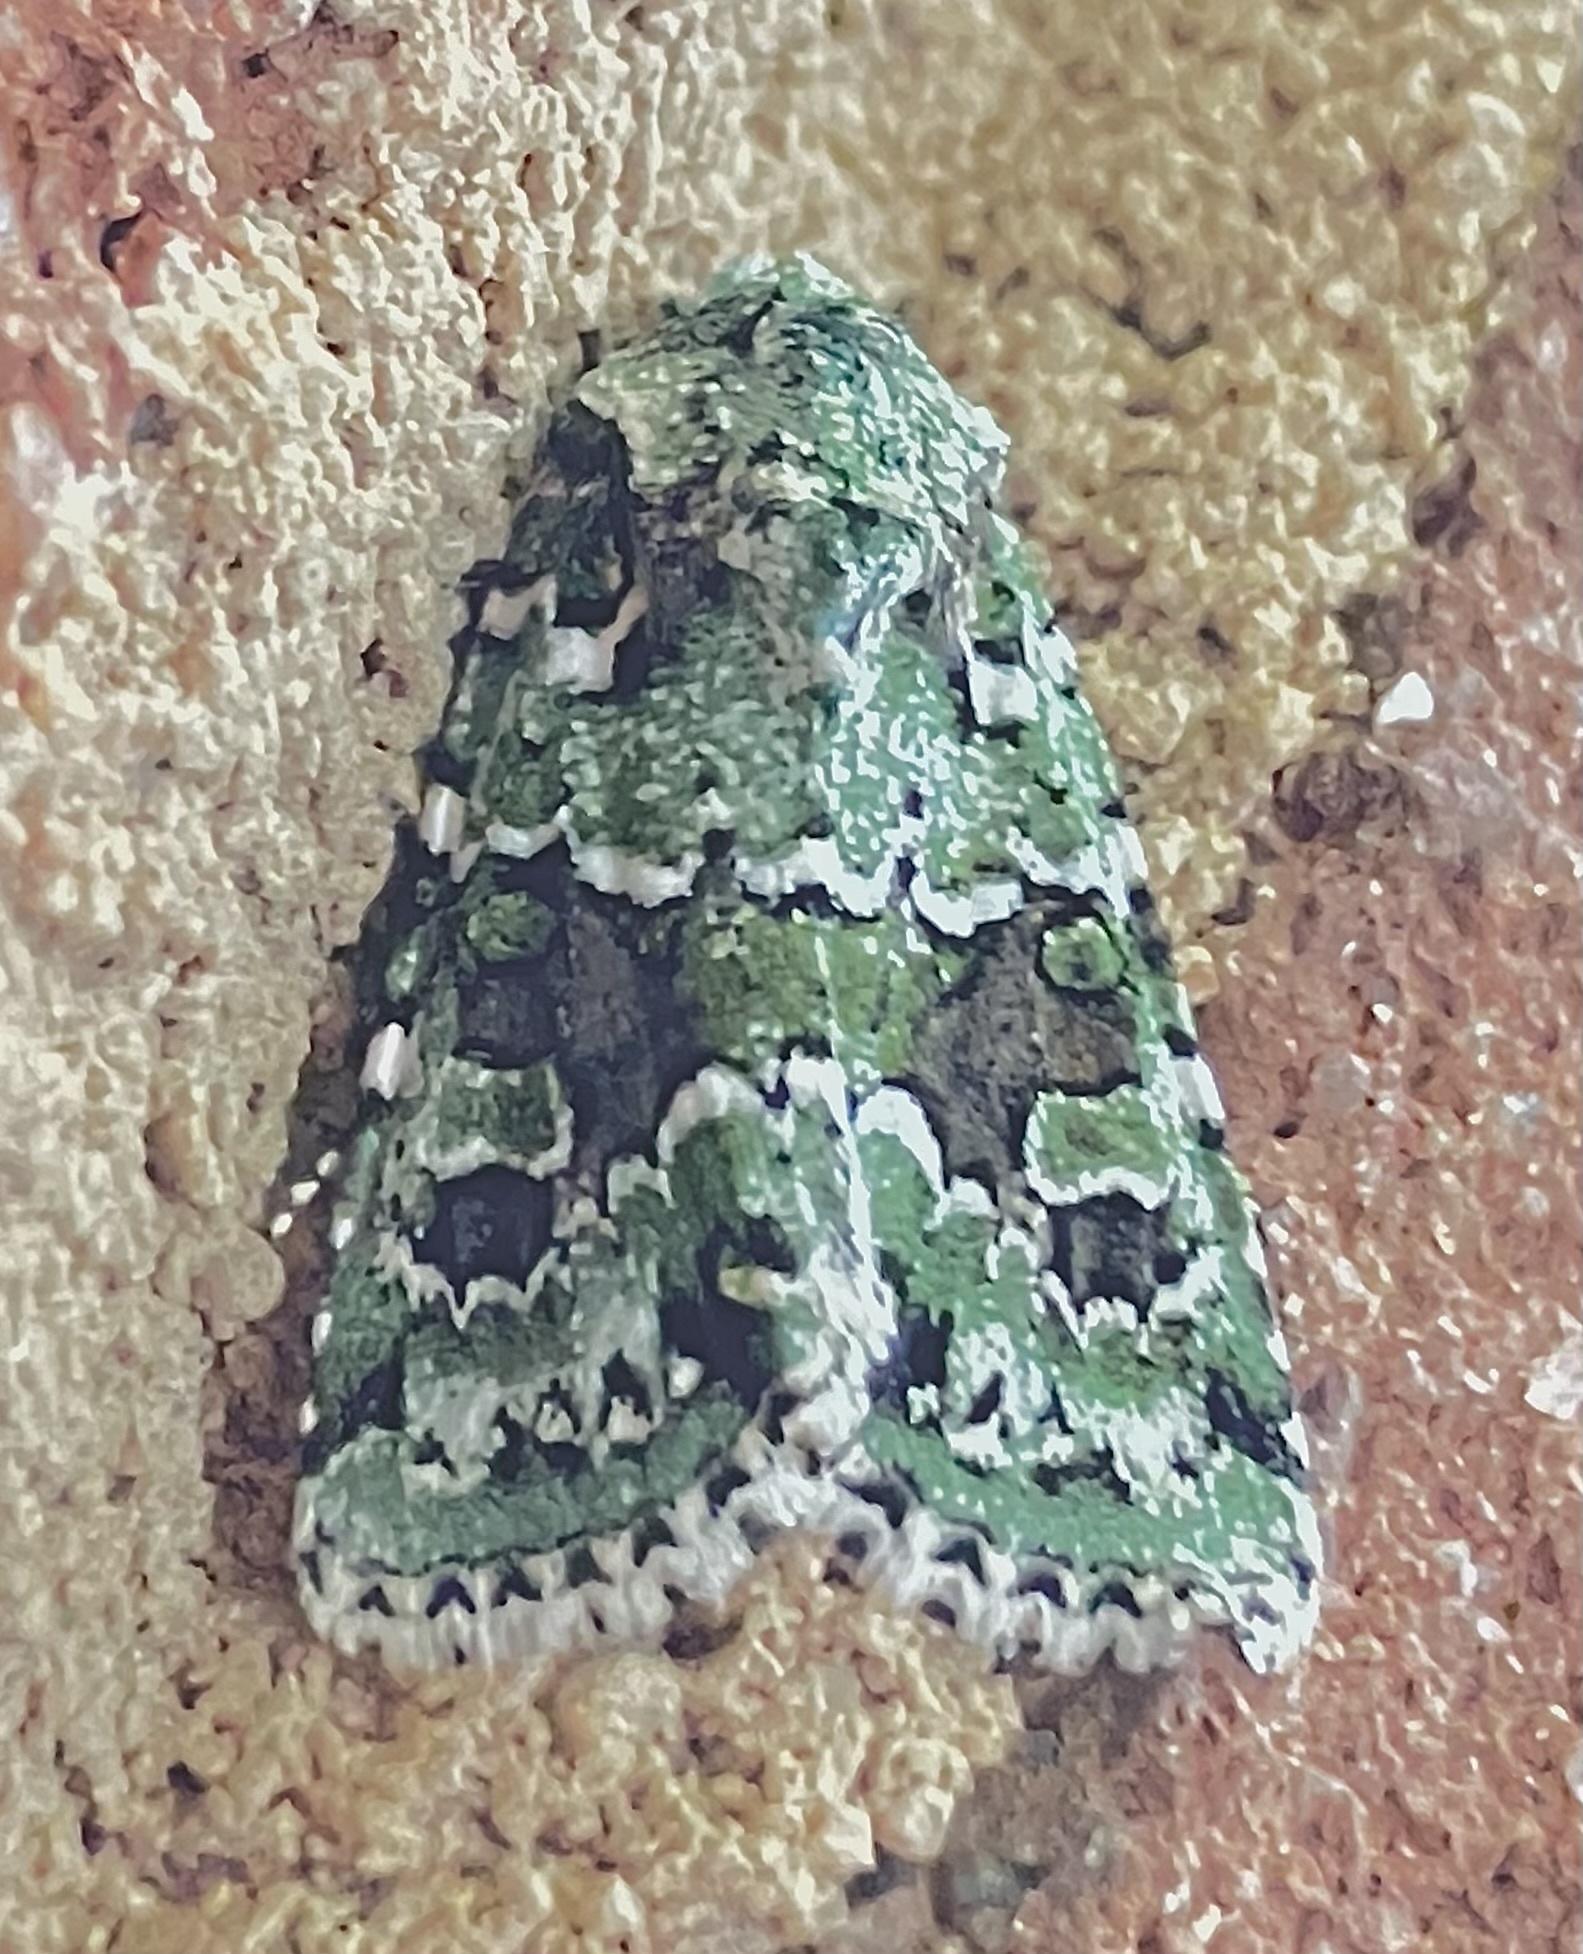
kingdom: Animalia
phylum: Arthropoda
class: Insecta
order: Lepidoptera
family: Noctuidae
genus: Lacinipolia
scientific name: Lacinipolia laudabilis
